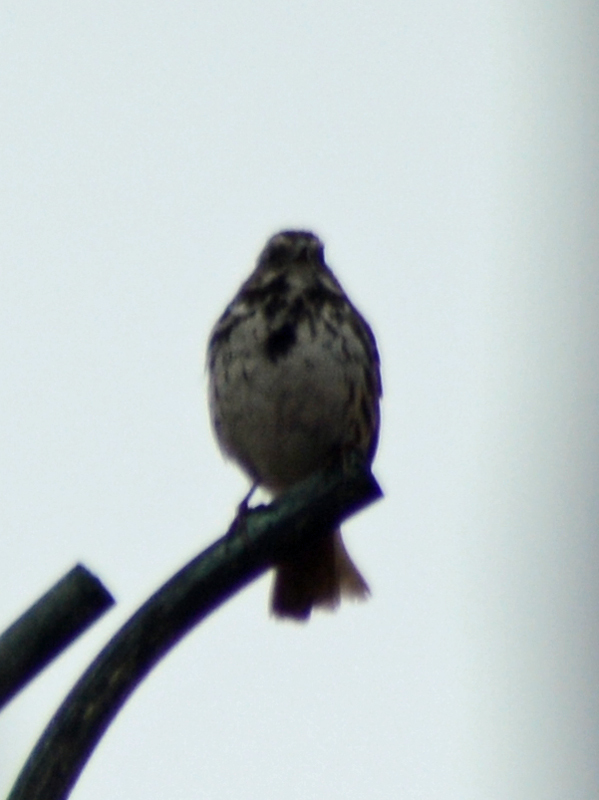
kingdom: Animalia
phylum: Chordata
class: Aves
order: Passeriformes
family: Passerellidae
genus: Melospiza
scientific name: Melospiza melodia
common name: Song sparrow
